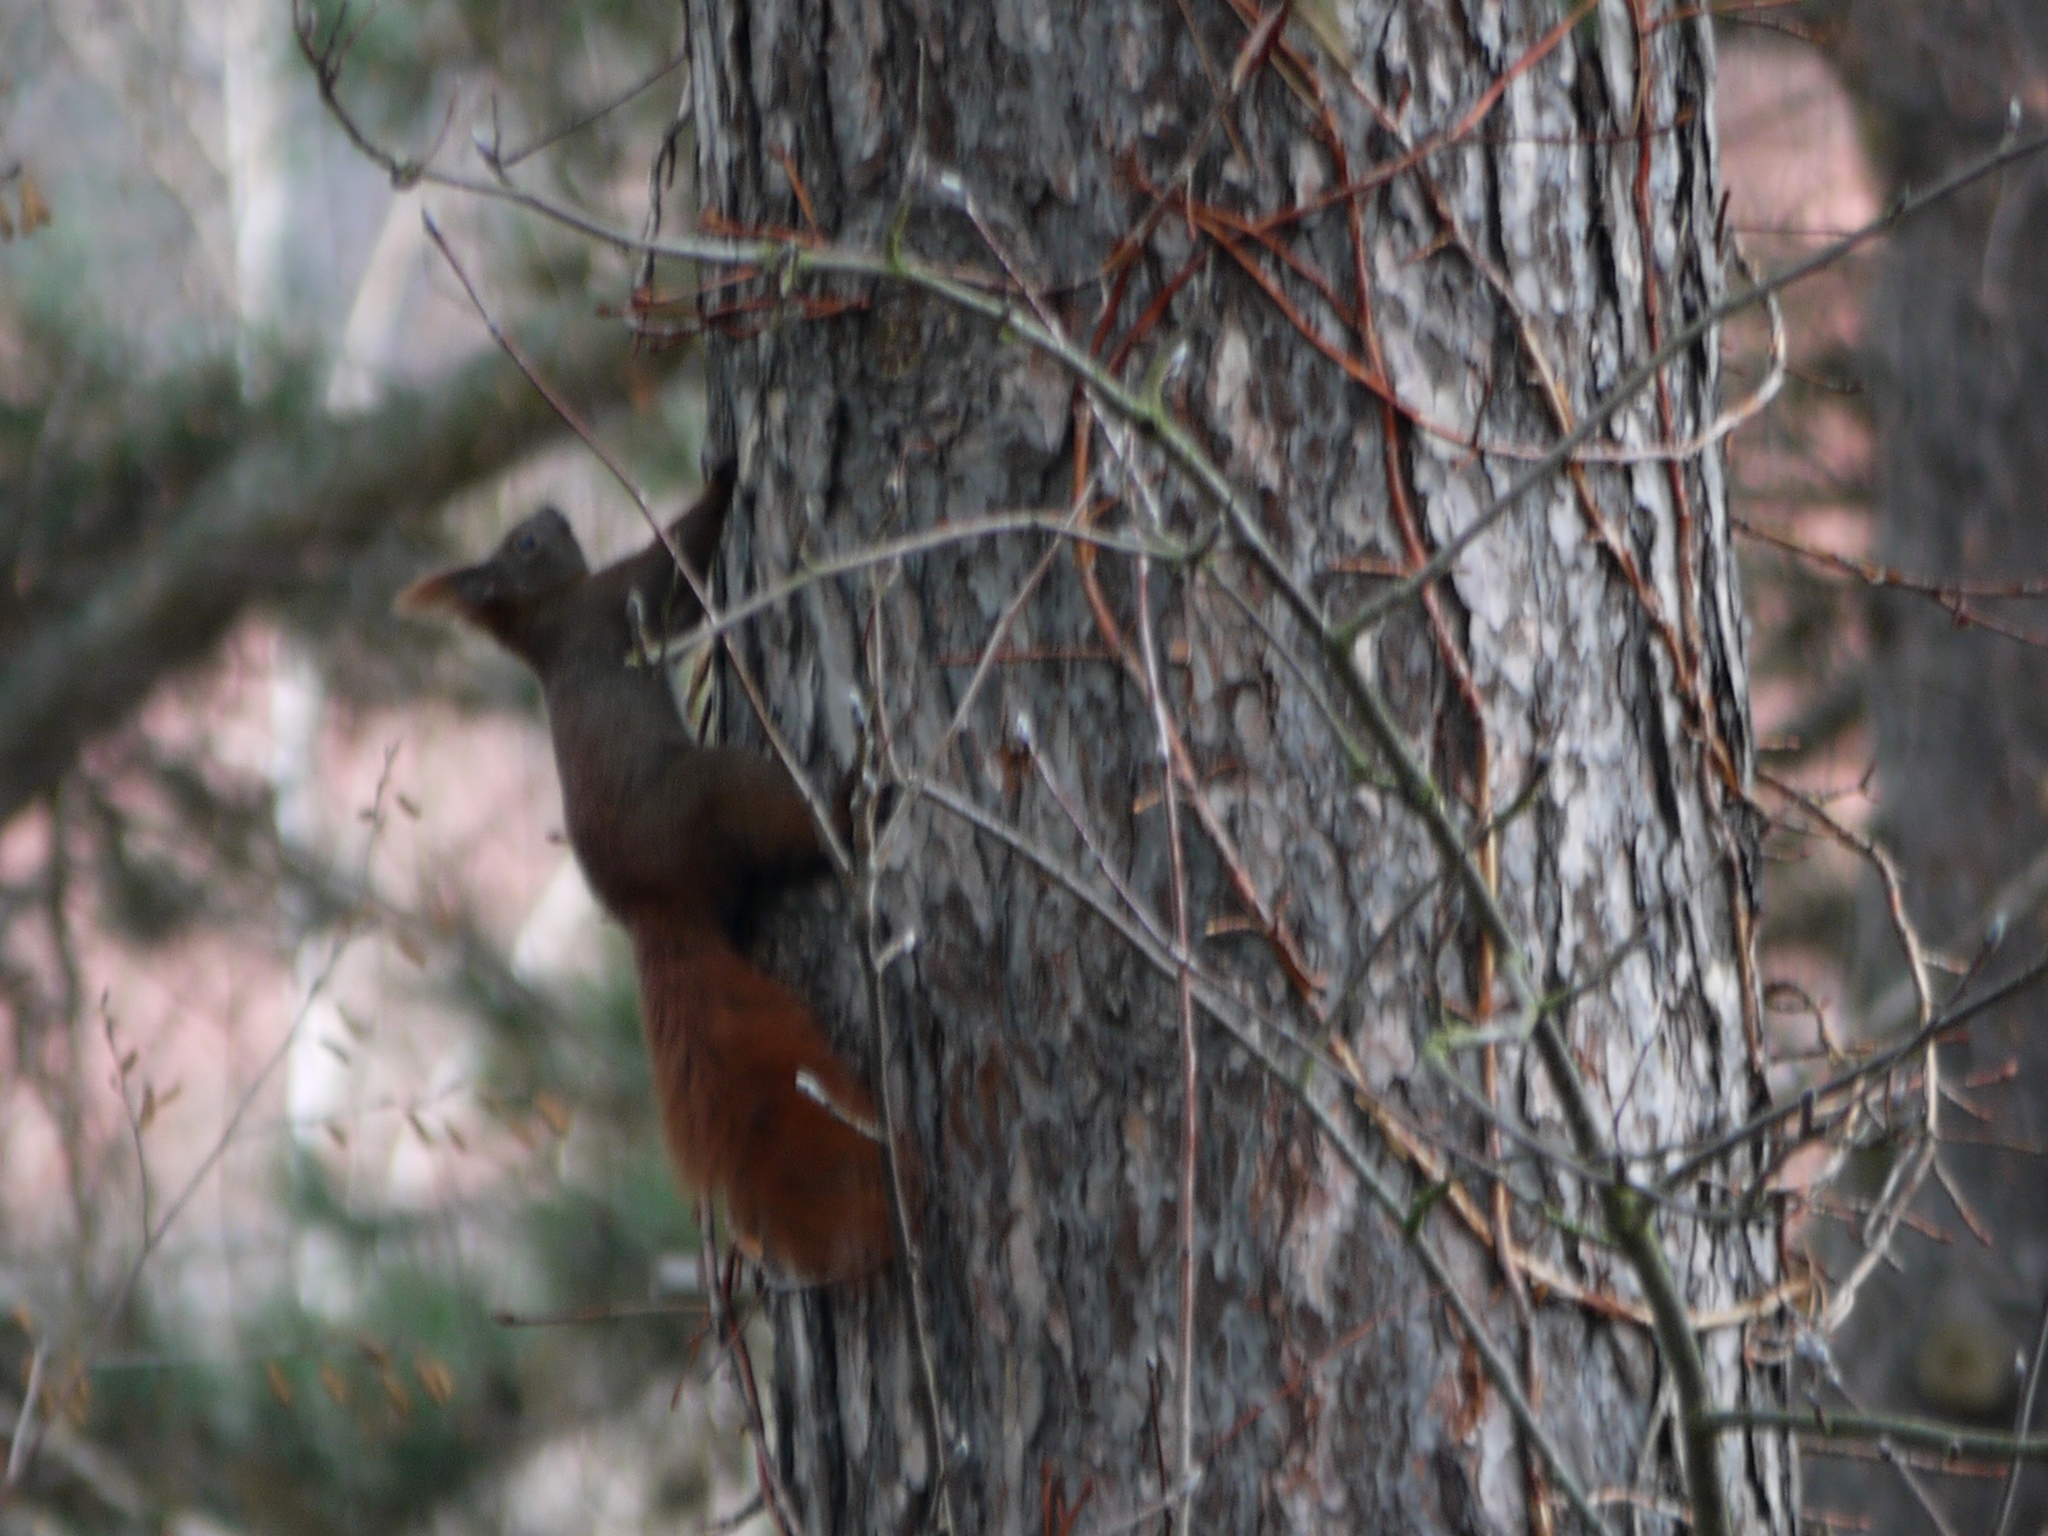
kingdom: Animalia
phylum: Chordata
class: Mammalia
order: Rodentia
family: Sciuridae
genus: Sciurus
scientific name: Sciurus vulgaris
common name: Eurasian red squirrel
